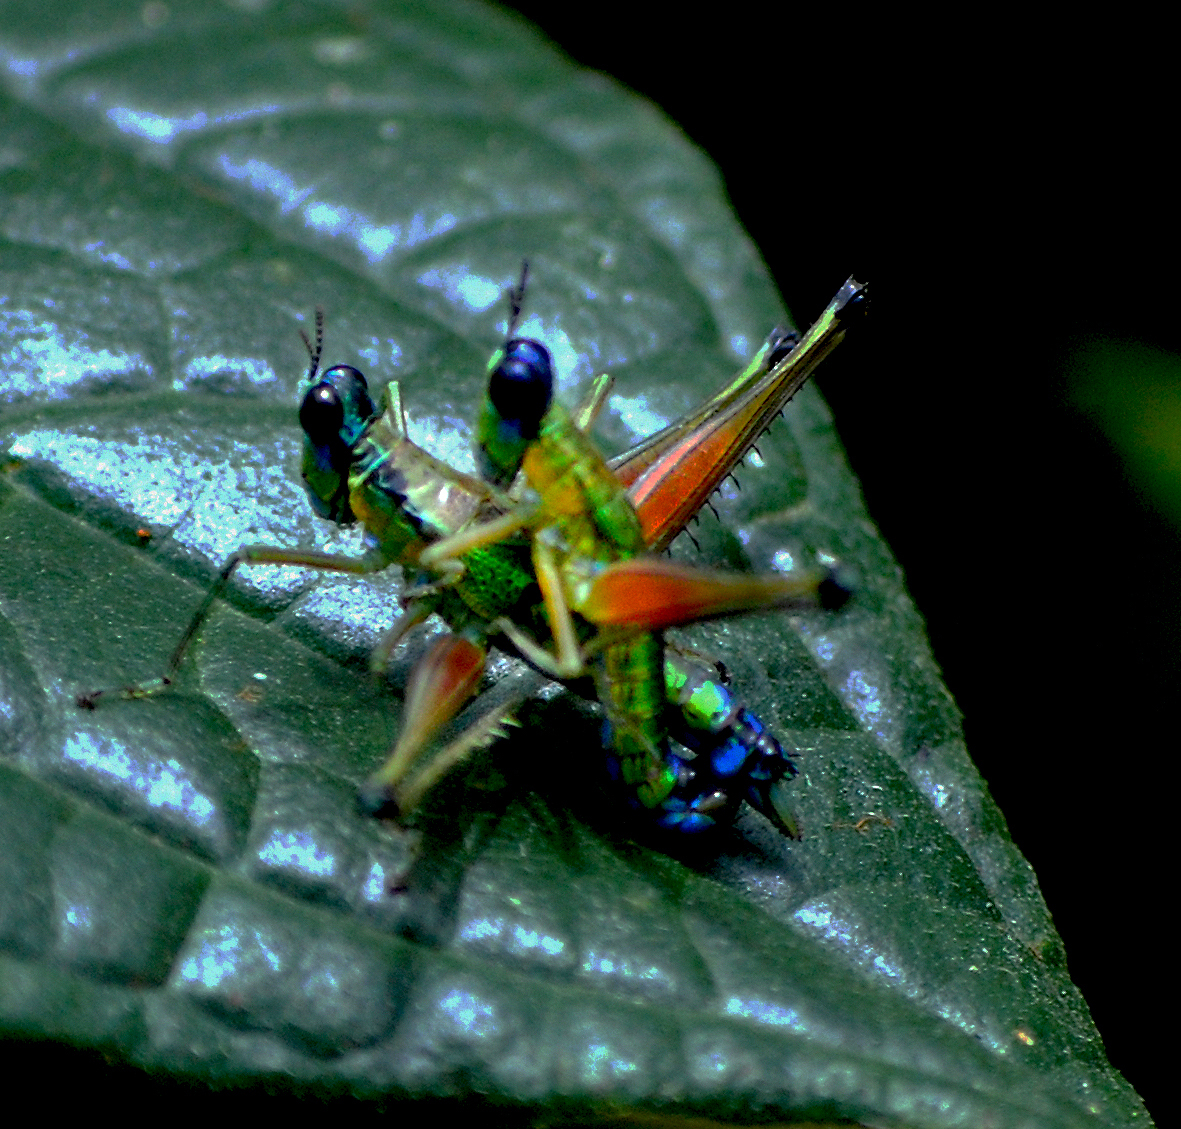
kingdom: Animalia
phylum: Arthropoda
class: Insecta
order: Orthoptera
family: Eumastacidae
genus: Caenomastax
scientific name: Caenomastax bimaculata
